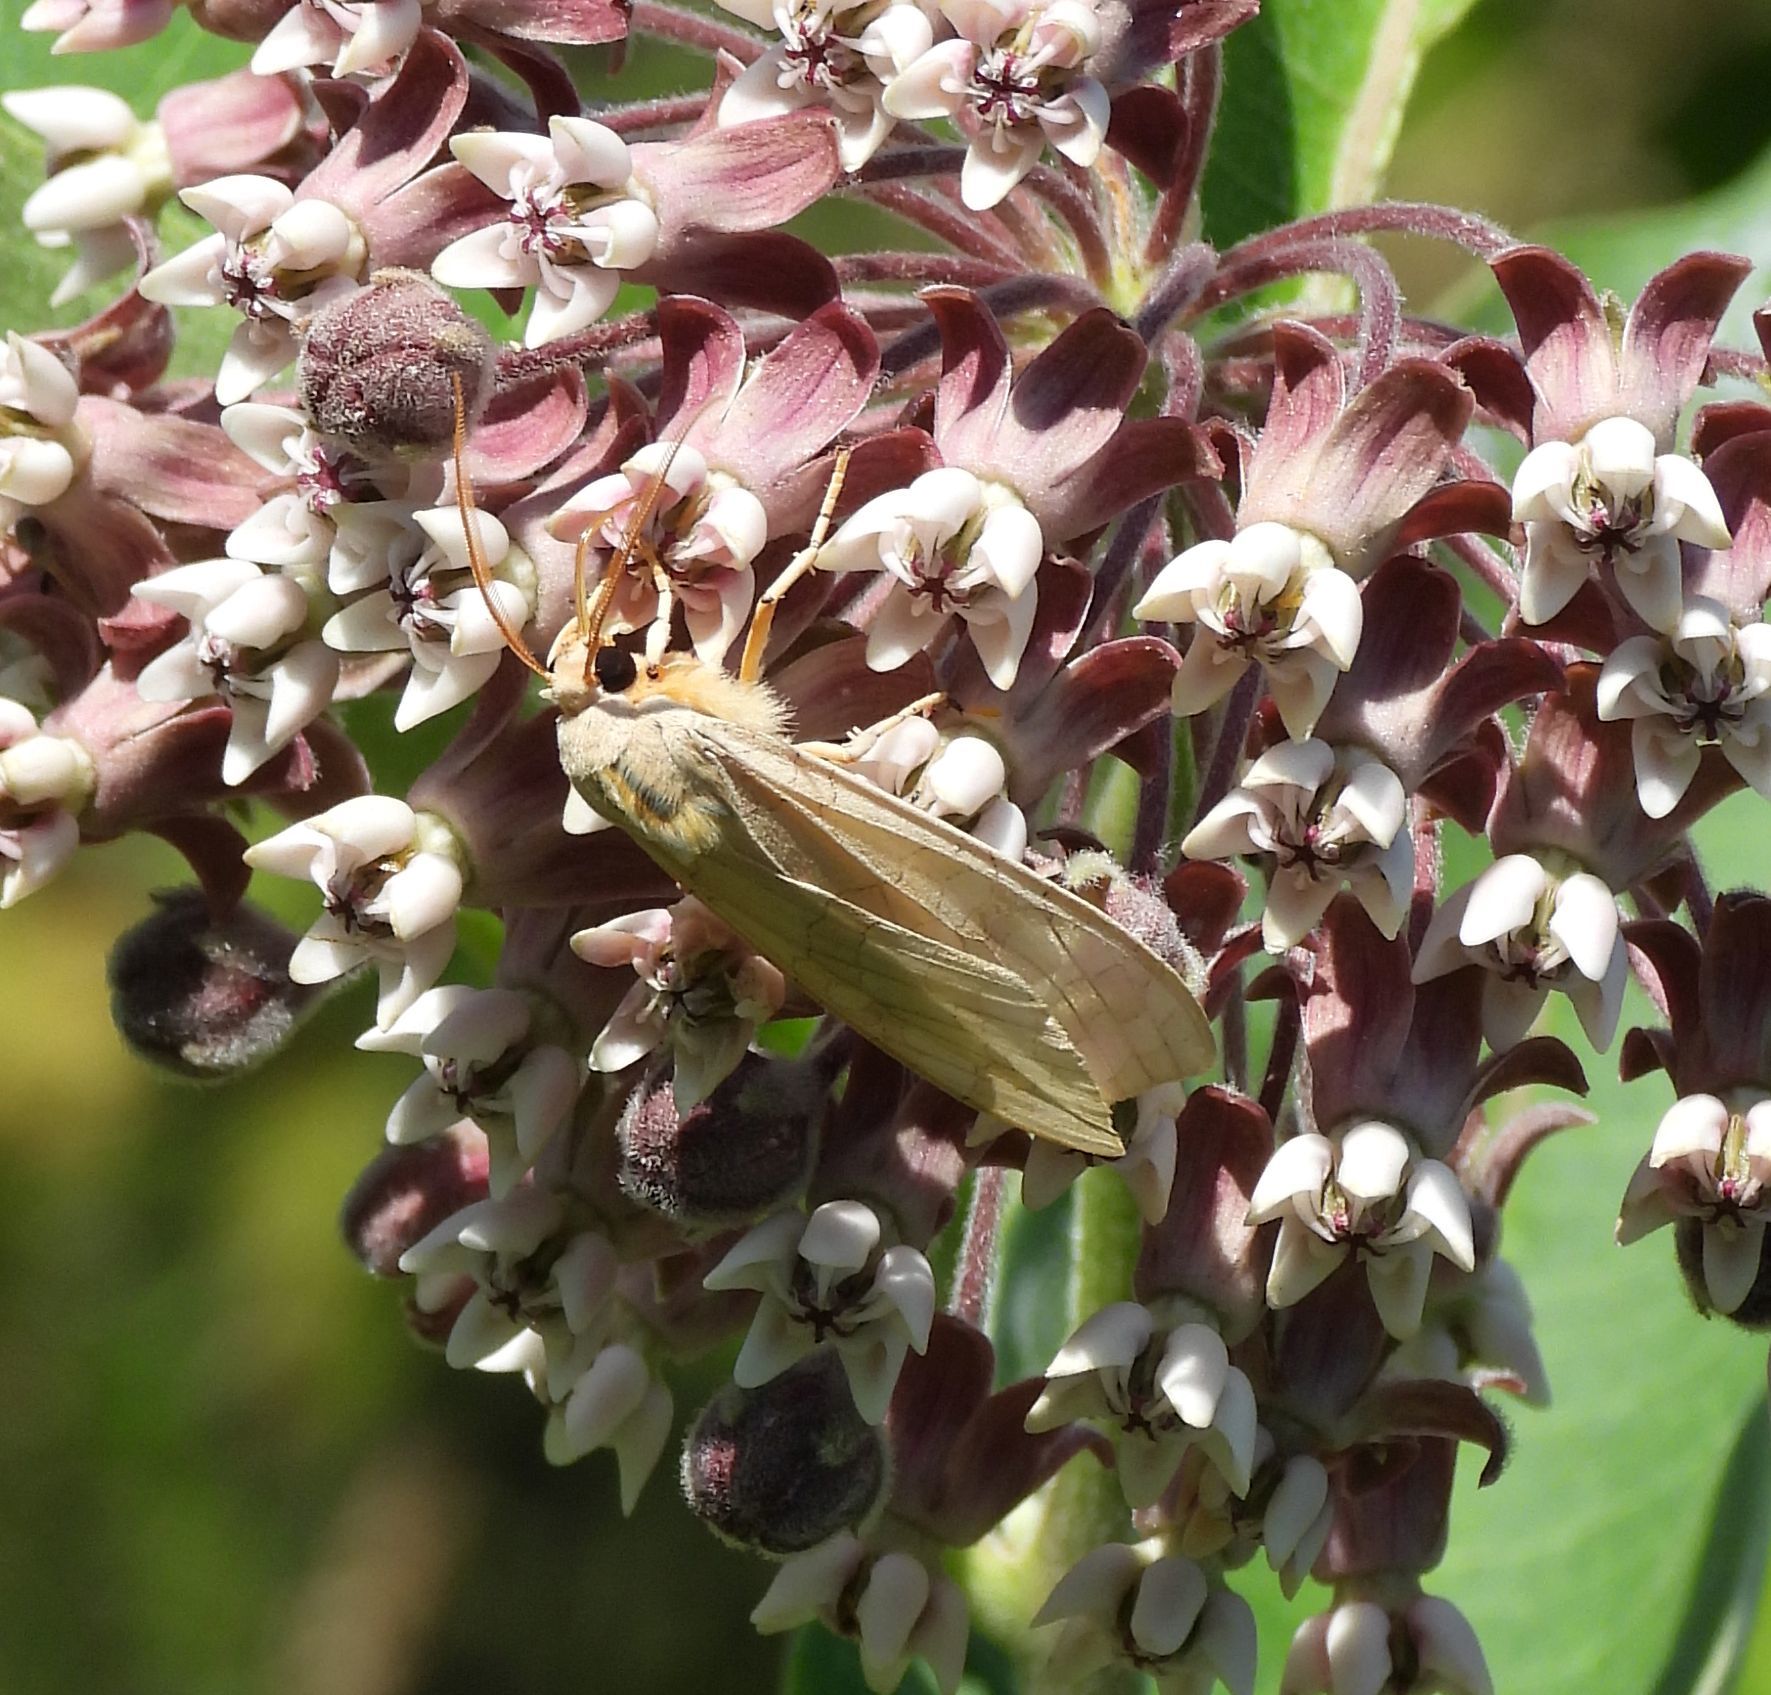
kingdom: Animalia
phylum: Arthropoda
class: Insecta
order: Lepidoptera
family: Erebidae
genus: Halysidota
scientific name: Halysidota tessellaris
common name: Banded tussock moth
